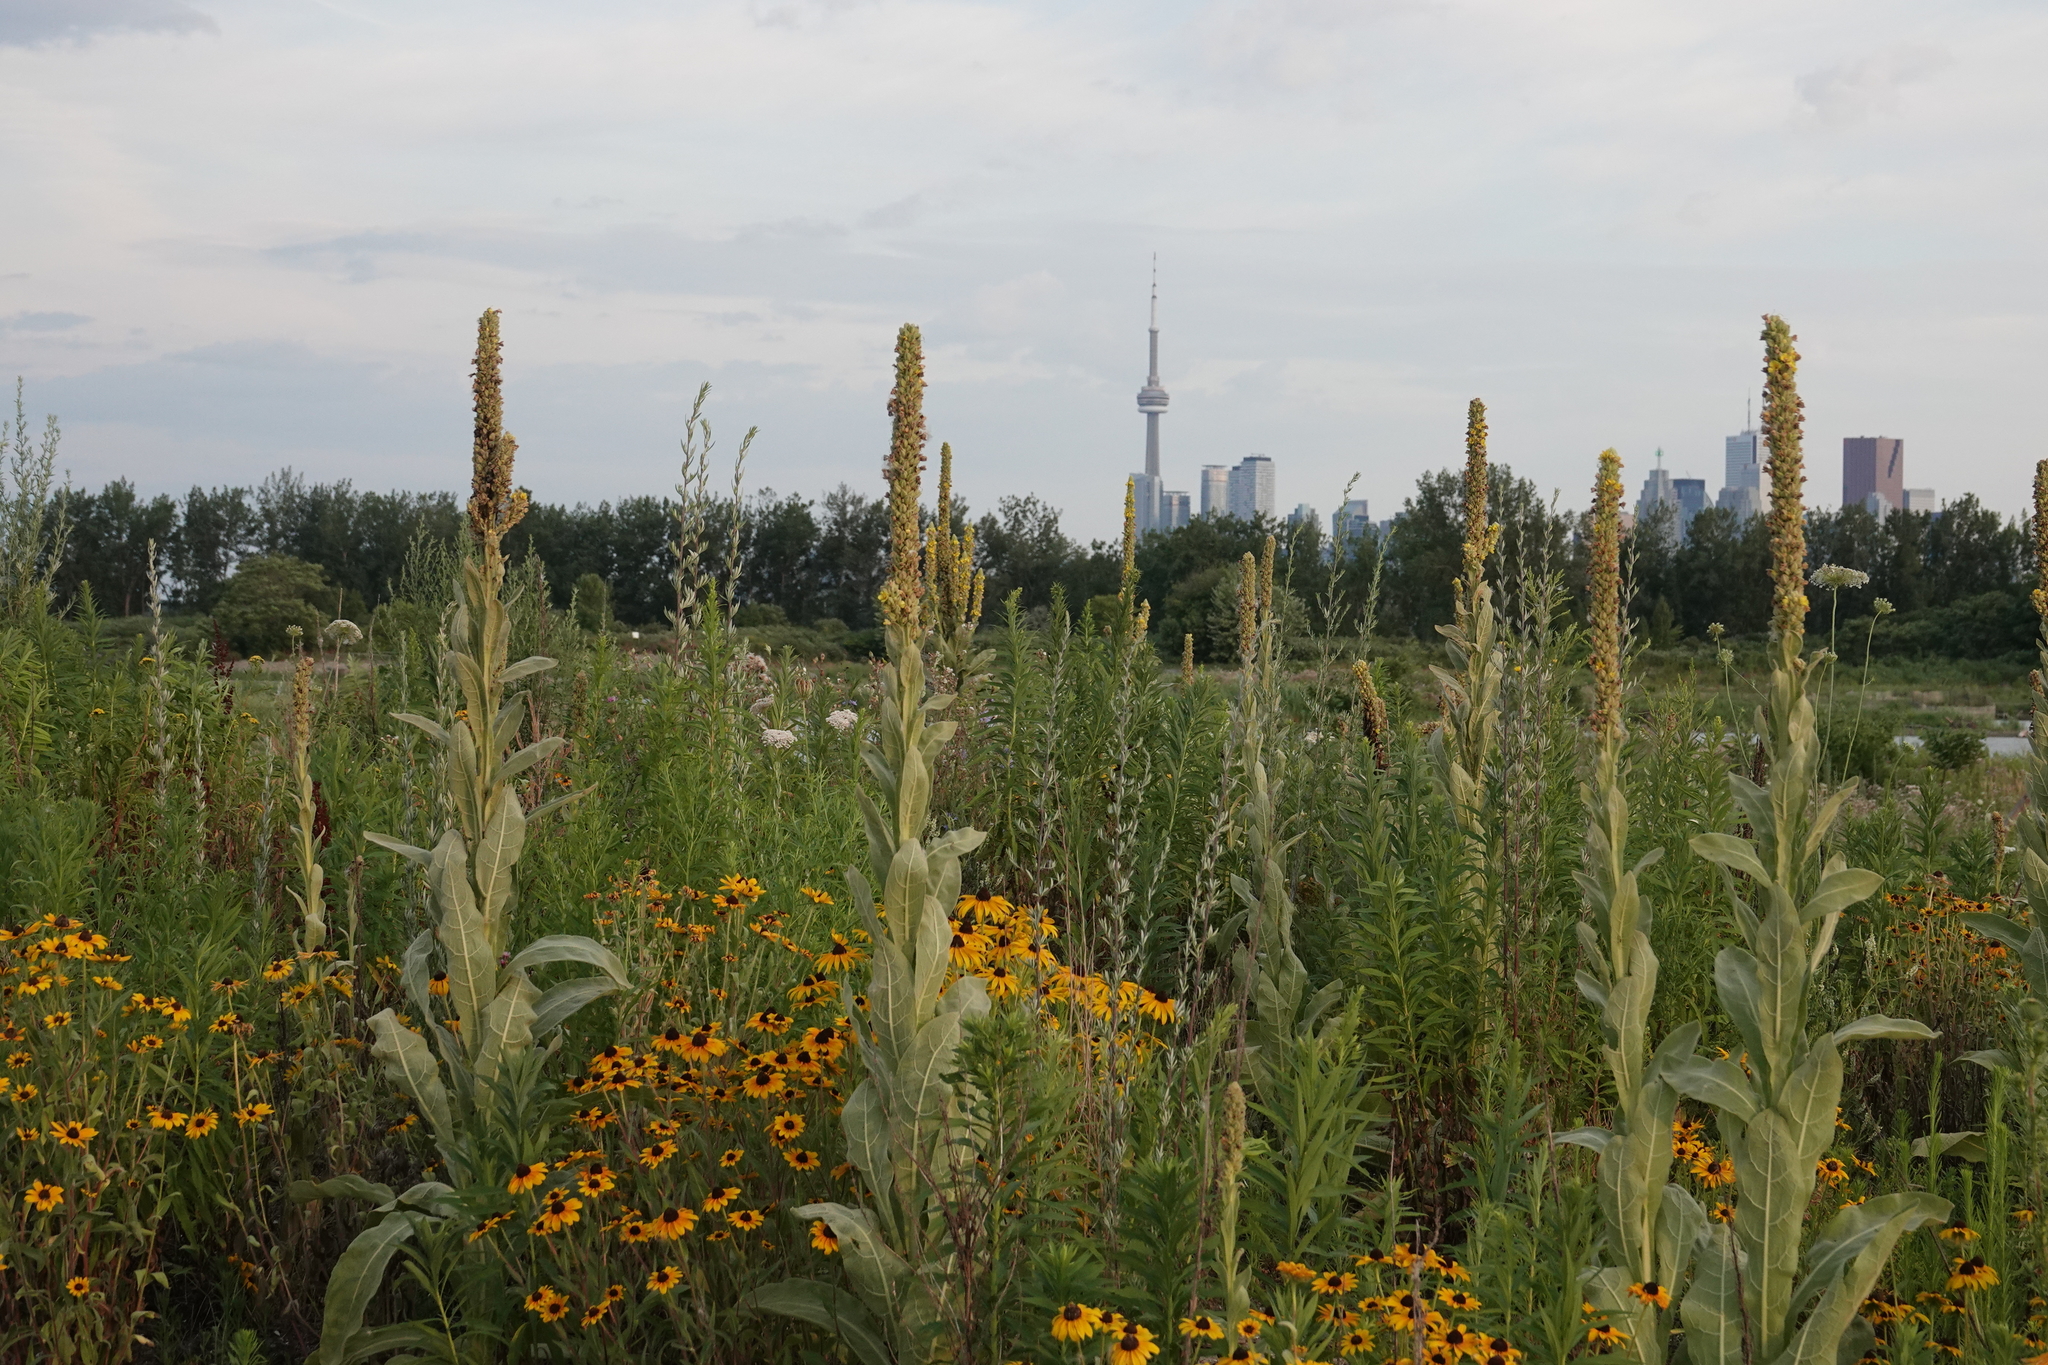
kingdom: Plantae
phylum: Tracheophyta
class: Magnoliopsida
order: Lamiales
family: Scrophulariaceae
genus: Verbascum
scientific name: Verbascum thapsus
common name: Common mullein
